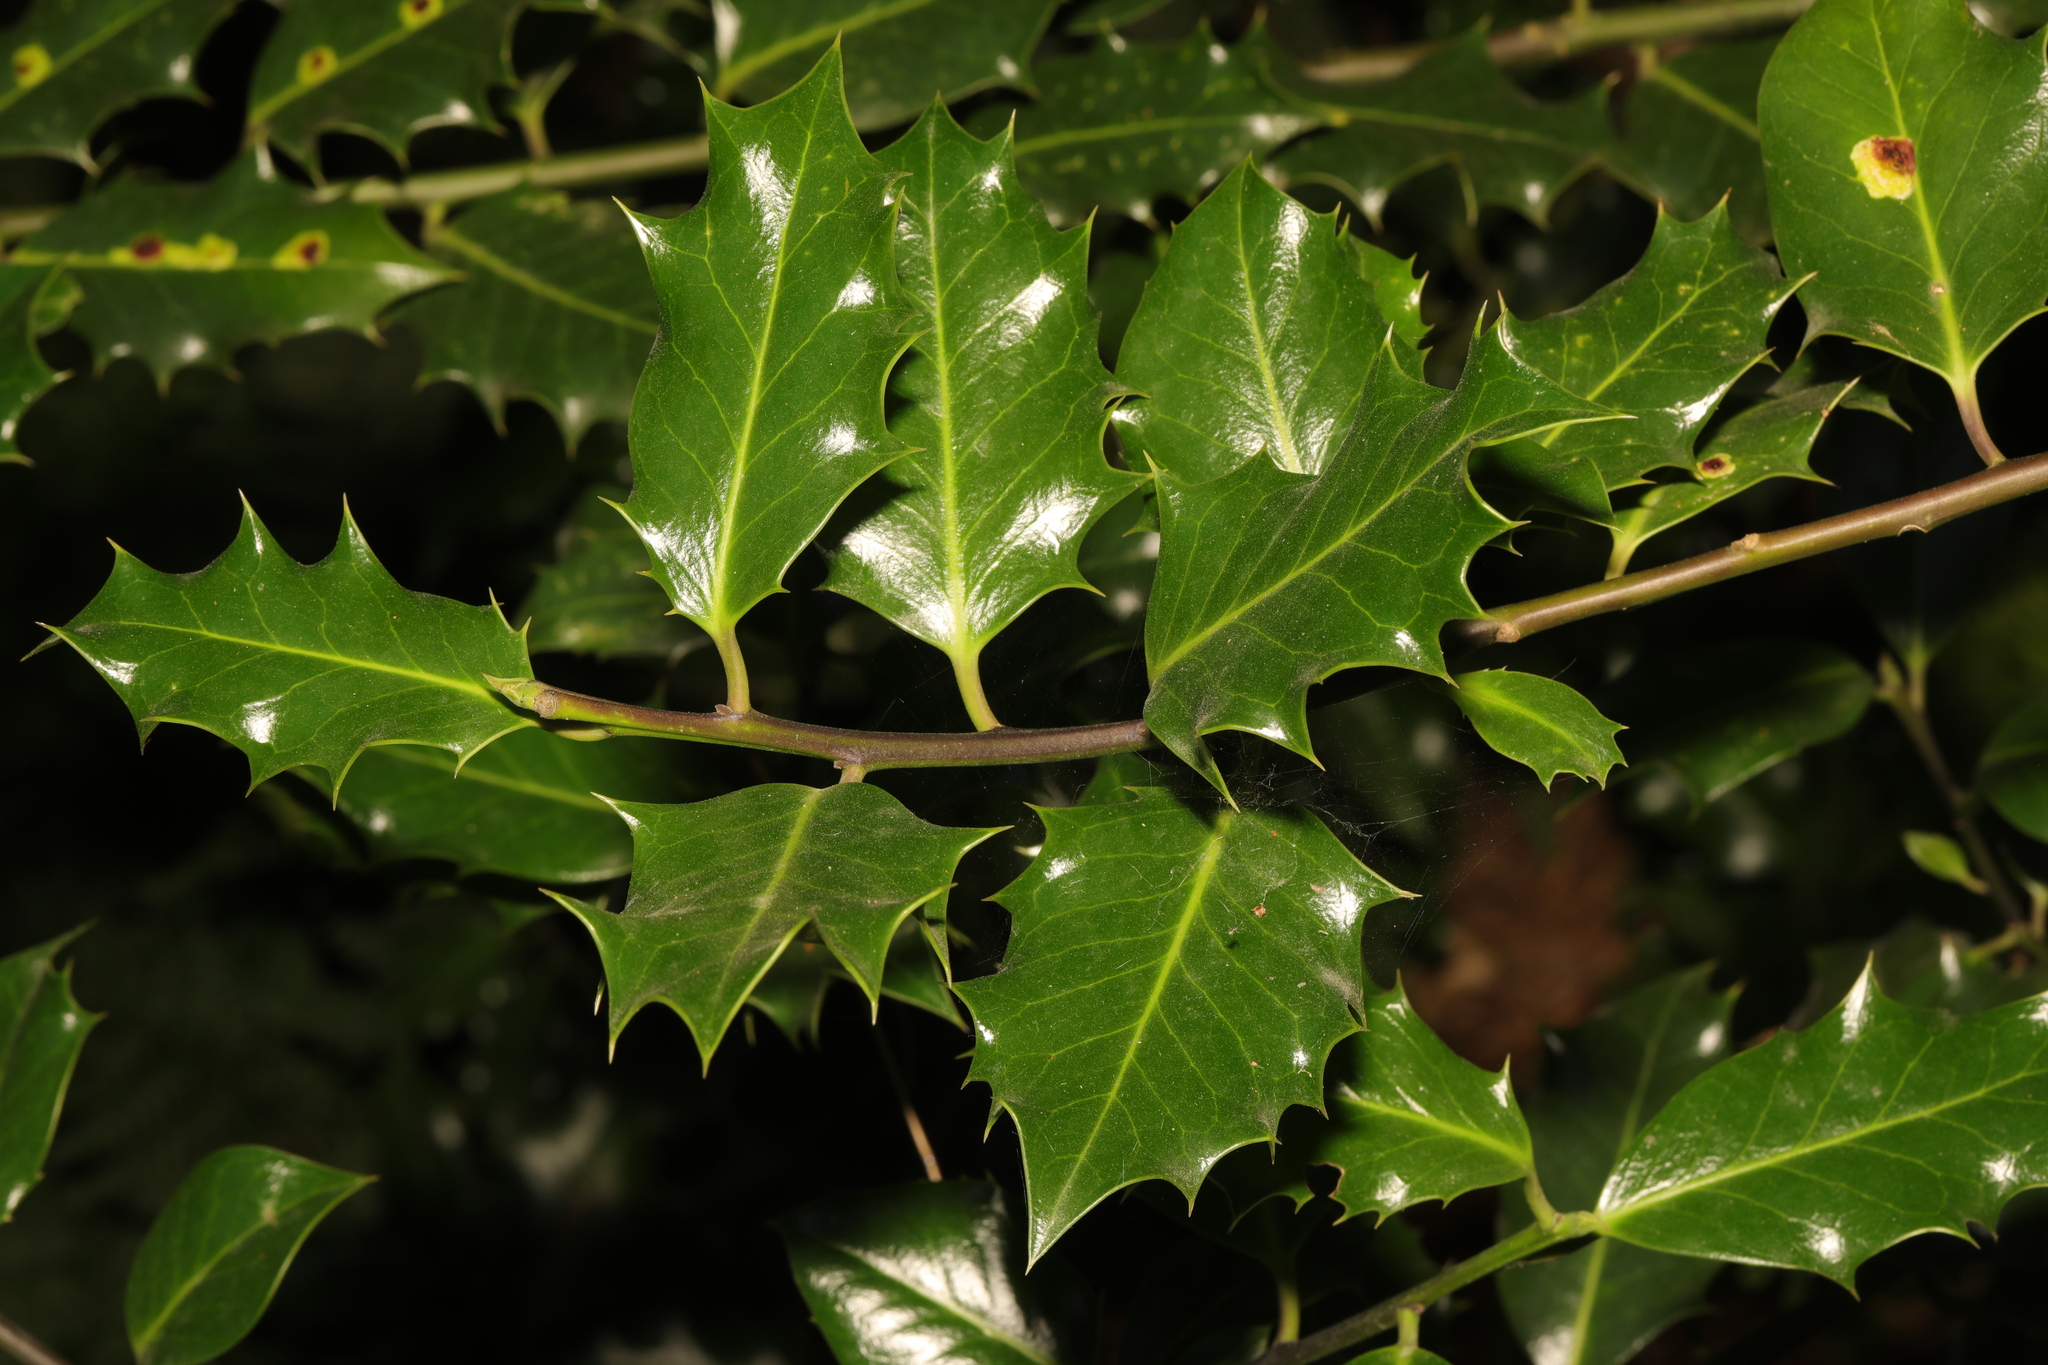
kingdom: Plantae
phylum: Tracheophyta
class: Magnoliopsida
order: Aquifoliales
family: Aquifoliaceae
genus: Ilex
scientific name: Ilex aquifolium
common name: English holly
